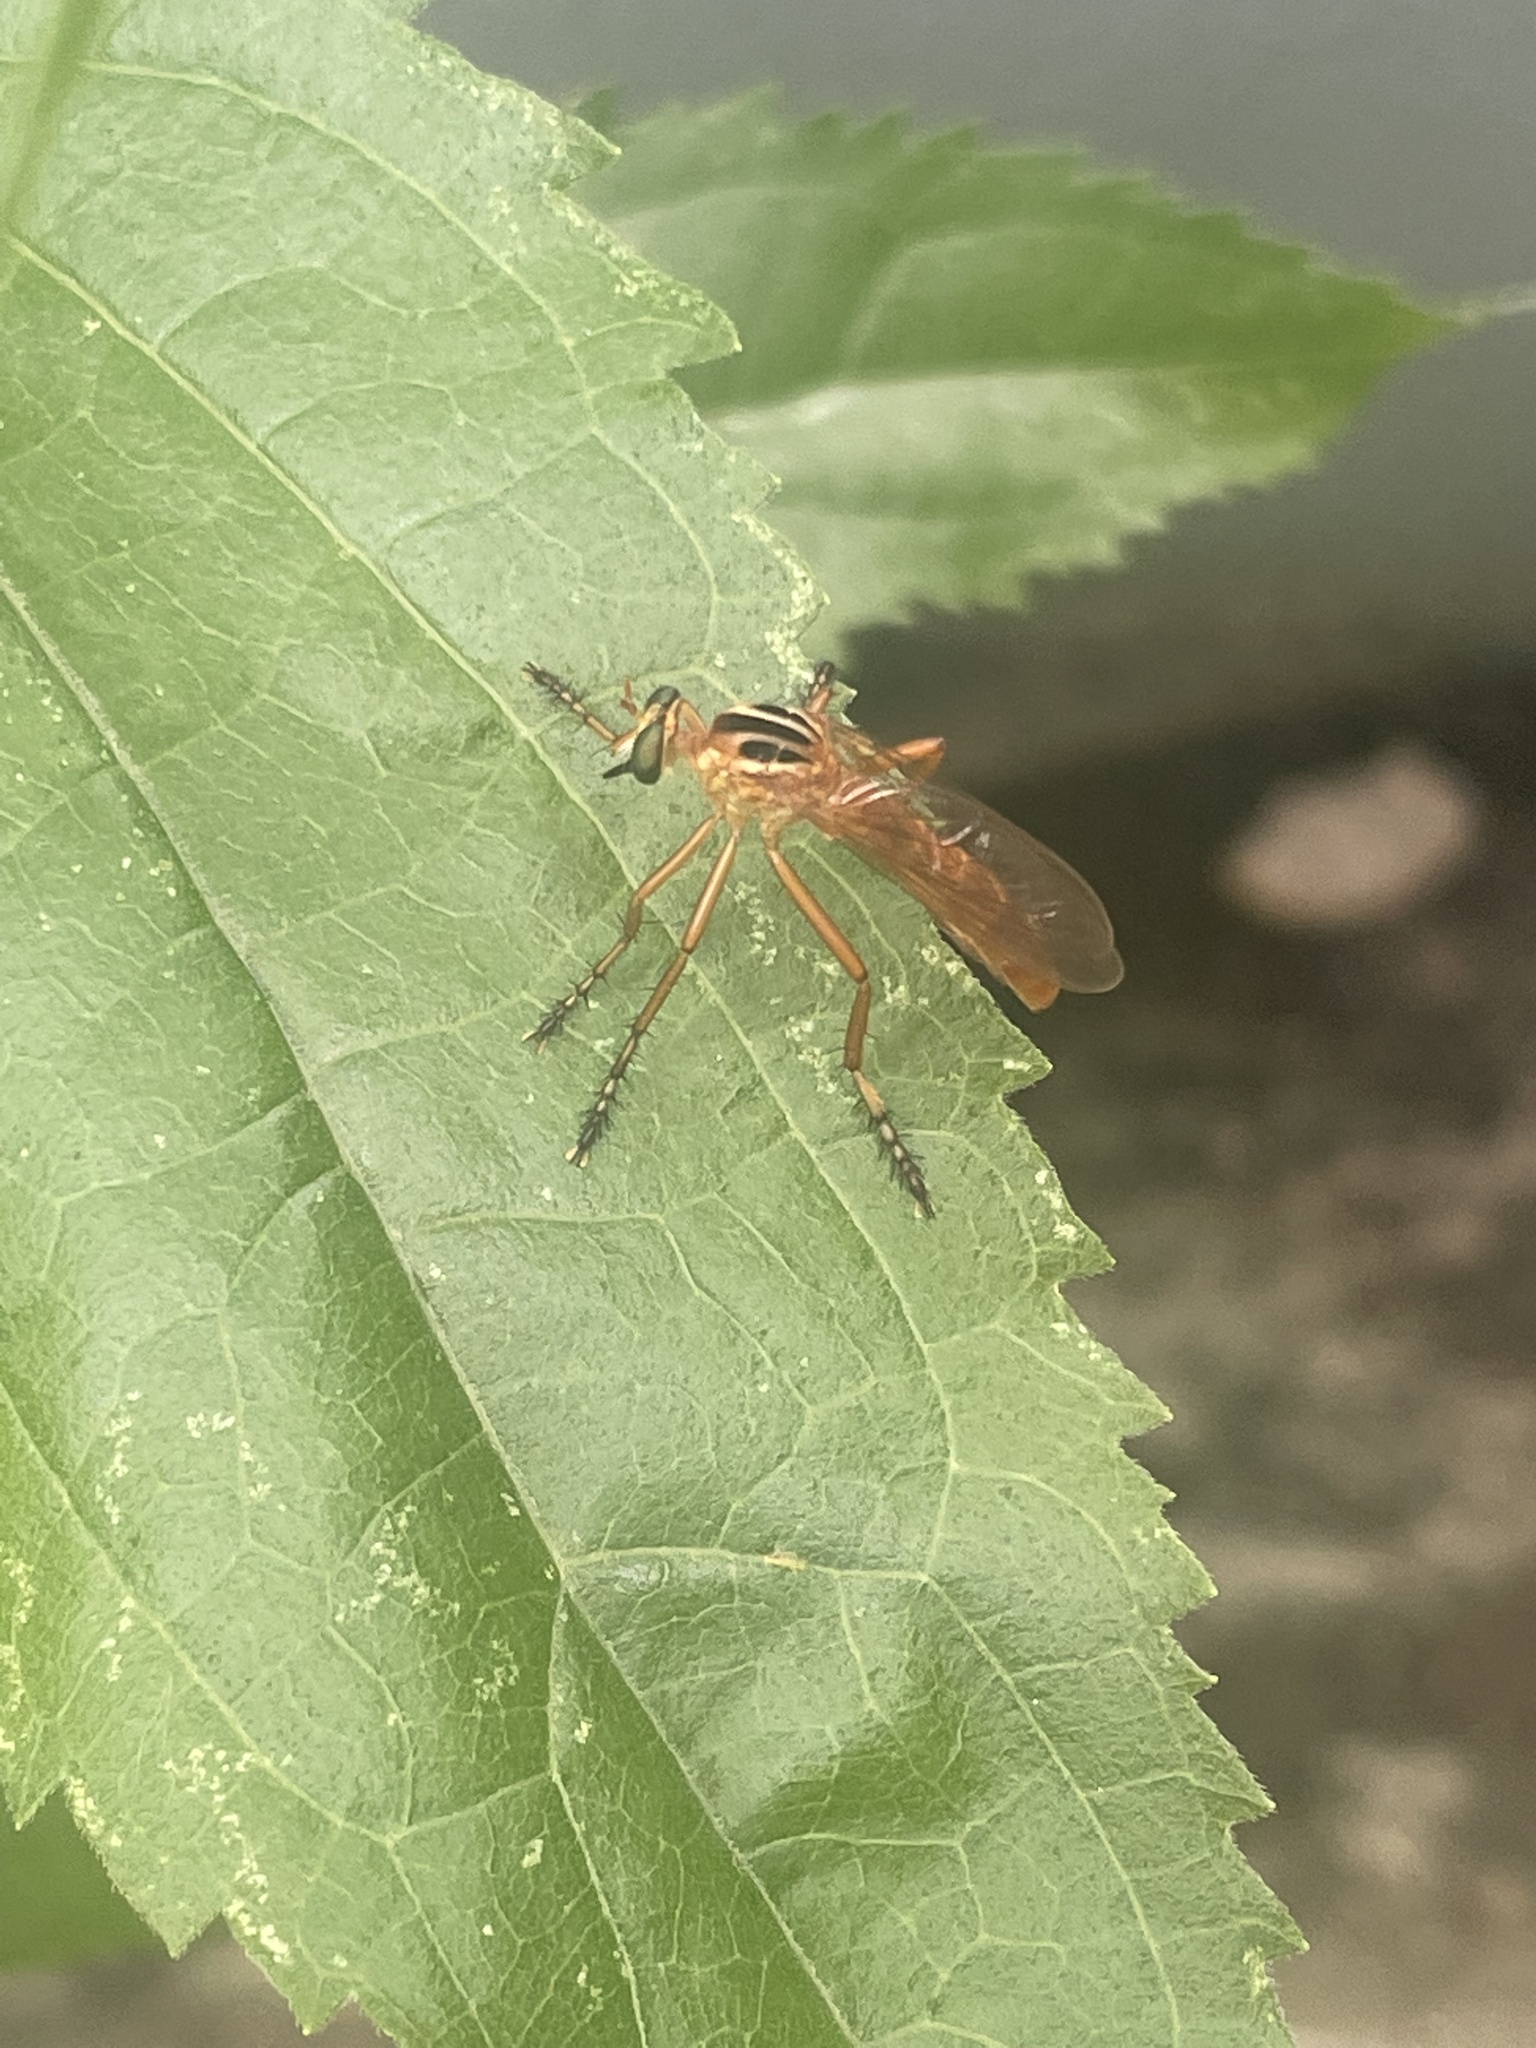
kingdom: Animalia
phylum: Arthropoda
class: Insecta
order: Diptera
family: Asilidae
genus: Diogmites
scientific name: Diogmites neoternatus
